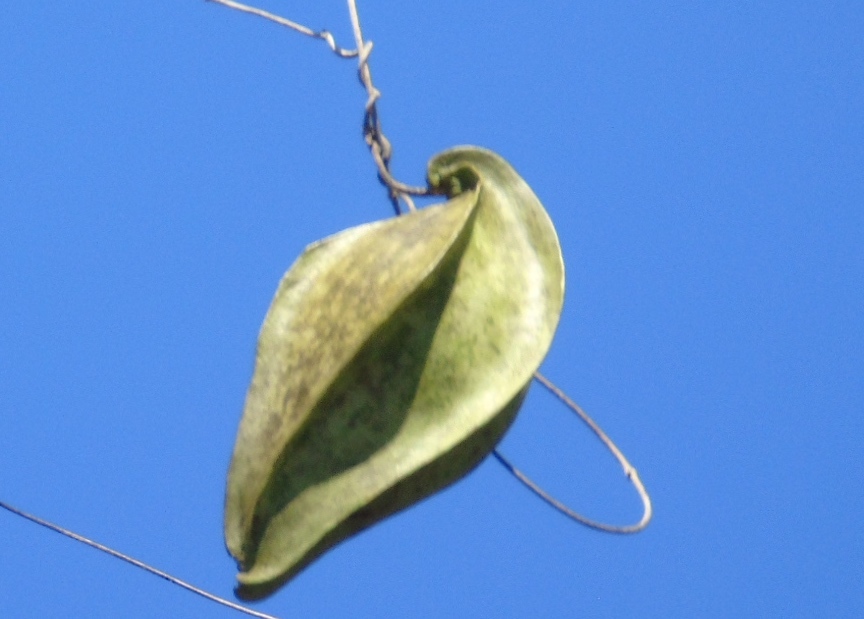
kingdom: Plantae
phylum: Tracheophyta
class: Magnoliopsida
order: Gentianales
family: Apocynaceae
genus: Gonolobus
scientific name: Gonolobus naturalistae
